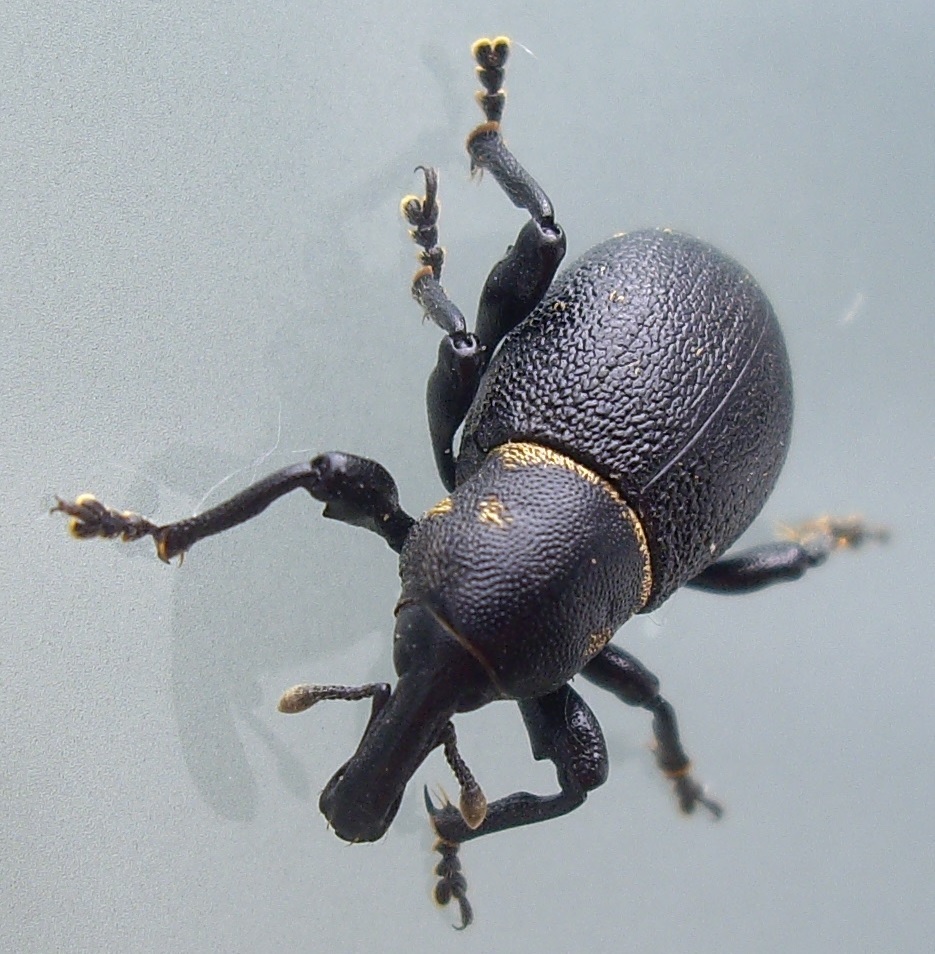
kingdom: Animalia
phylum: Arthropoda
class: Insecta
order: Coleoptera
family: Curculionidae
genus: Liparus
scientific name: Liparus coronatus
